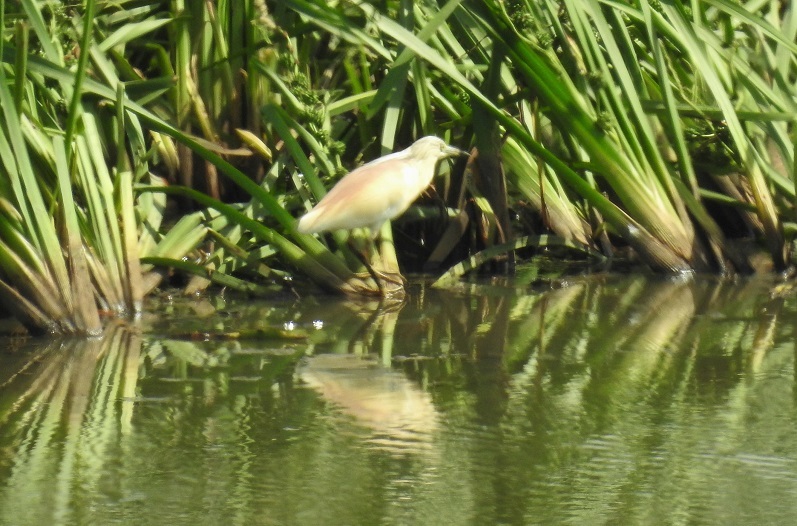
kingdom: Animalia
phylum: Chordata
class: Aves
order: Pelecaniformes
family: Ardeidae
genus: Ardeola
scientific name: Ardeola ralloides
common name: Squacco heron
